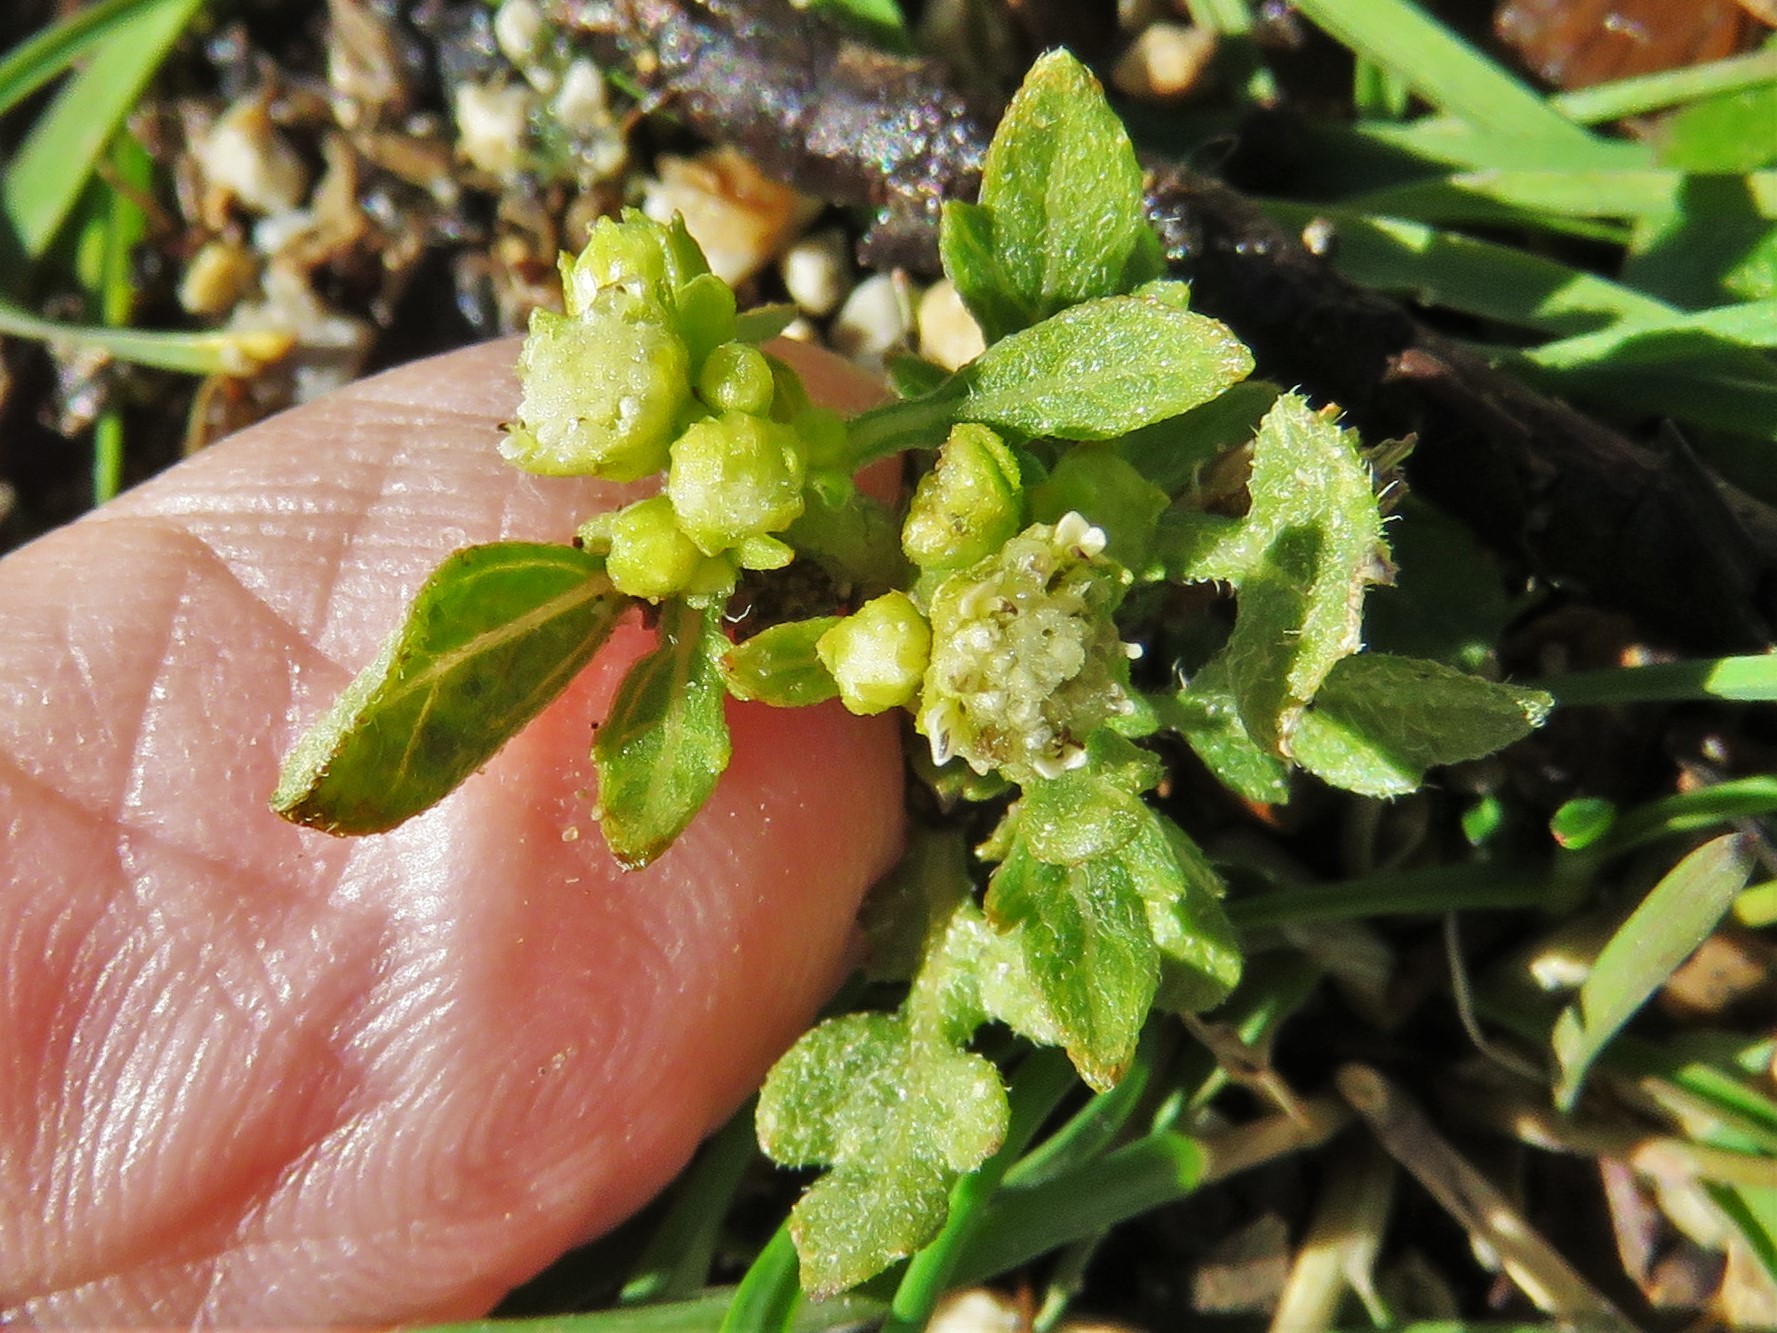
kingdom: Plantae
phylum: Tracheophyta
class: Magnoliopsida
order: Asterales
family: Asteraceae
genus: Parthenium
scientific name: Parthenium hysterophorus
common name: Santa maria feverfew
